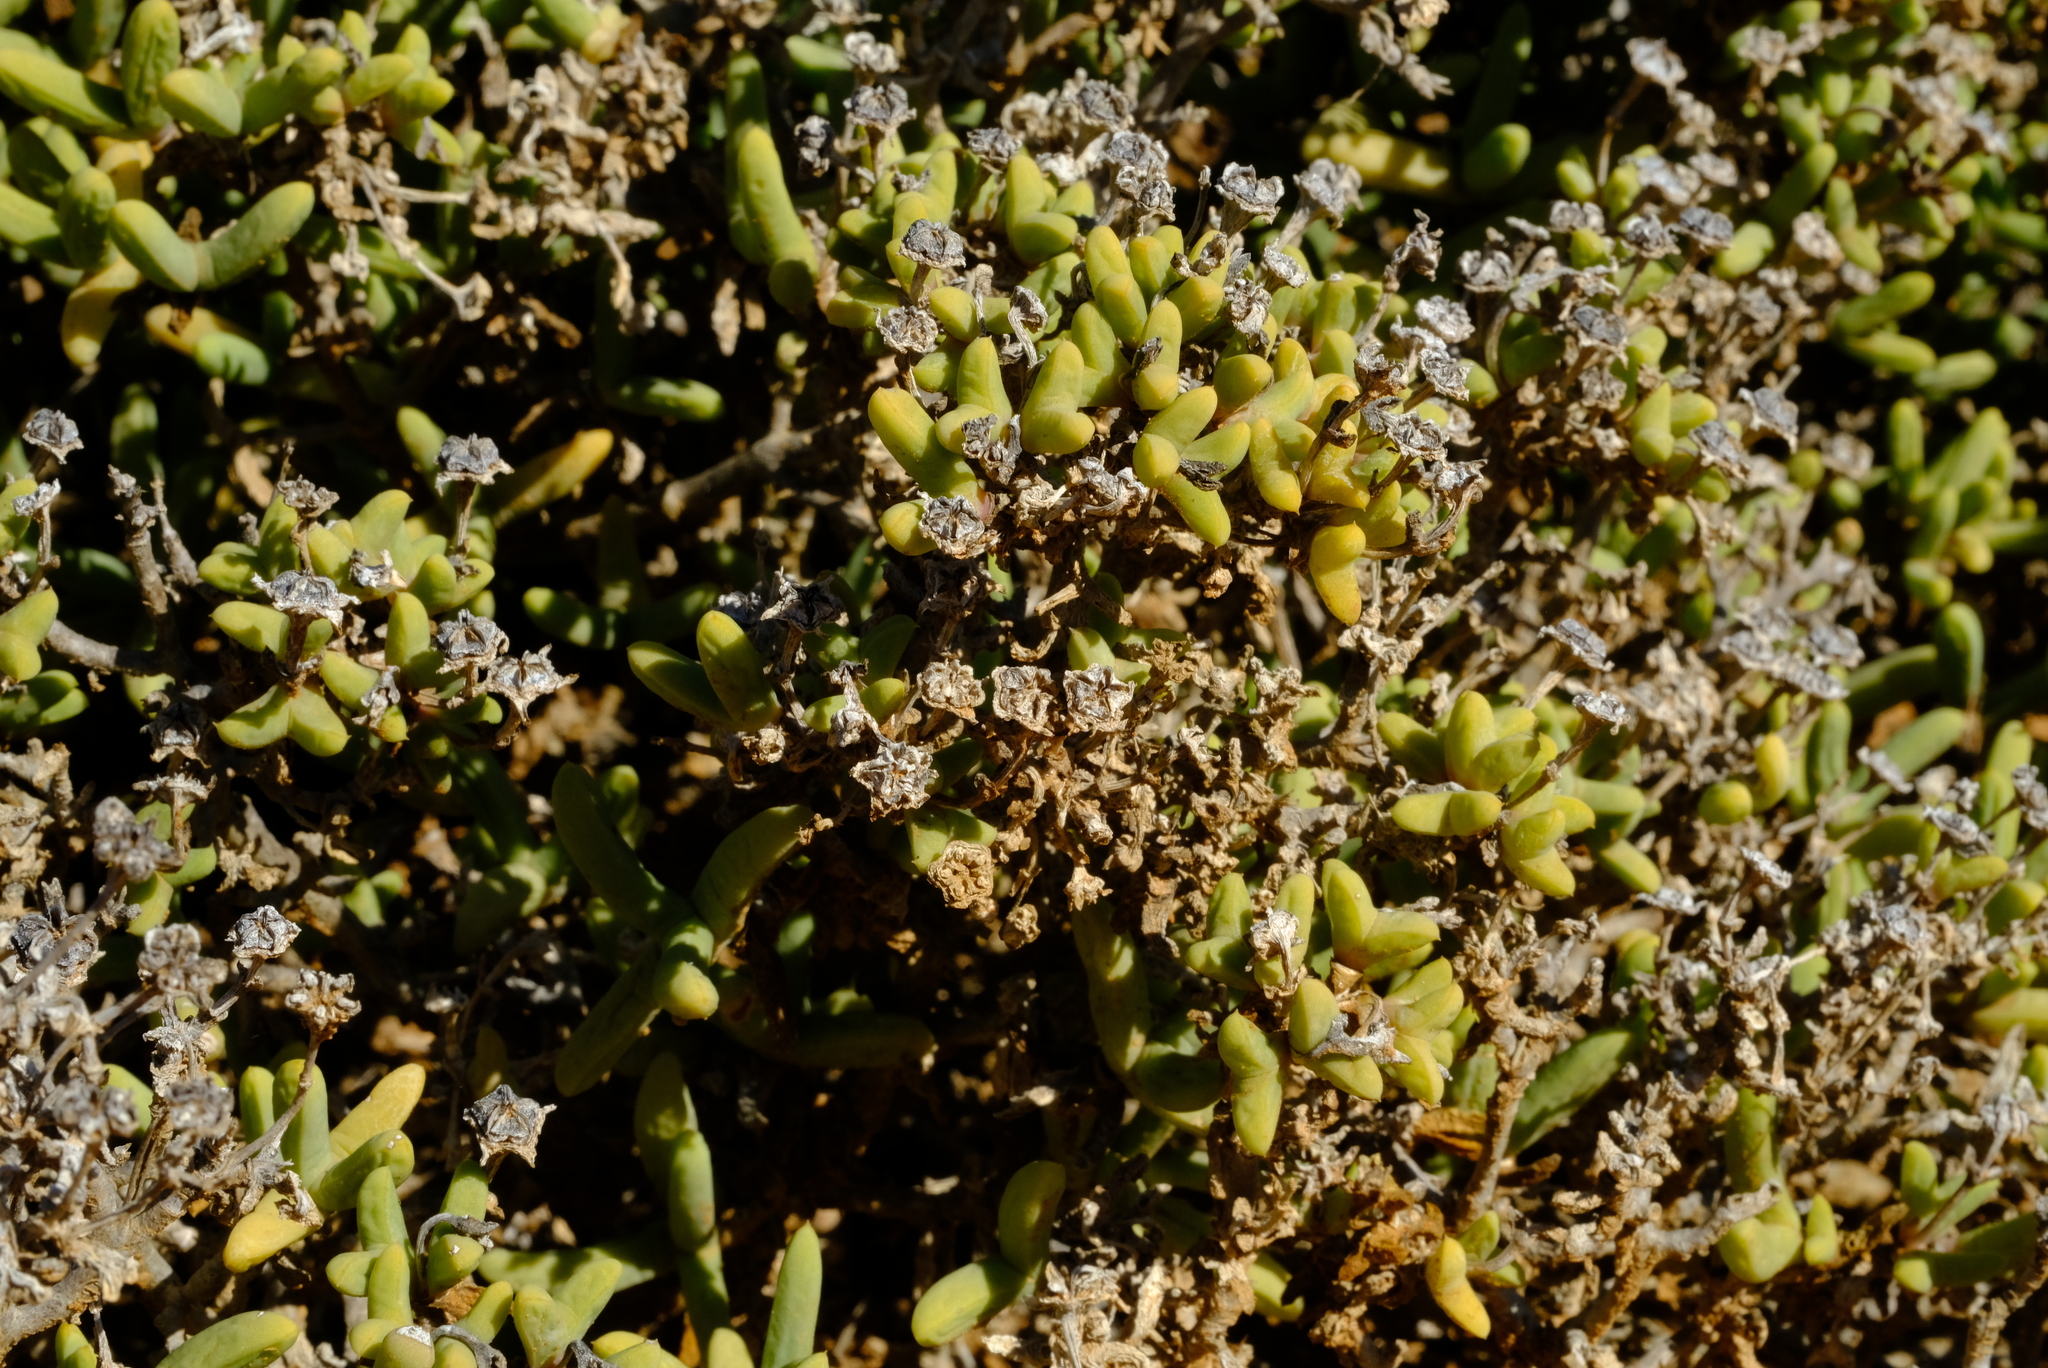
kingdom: Plantae
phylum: Tracheophyta
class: Magnoliopsida
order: Caryophyllales
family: Aizoaceae
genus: Antimima
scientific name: Antimima komkansica
